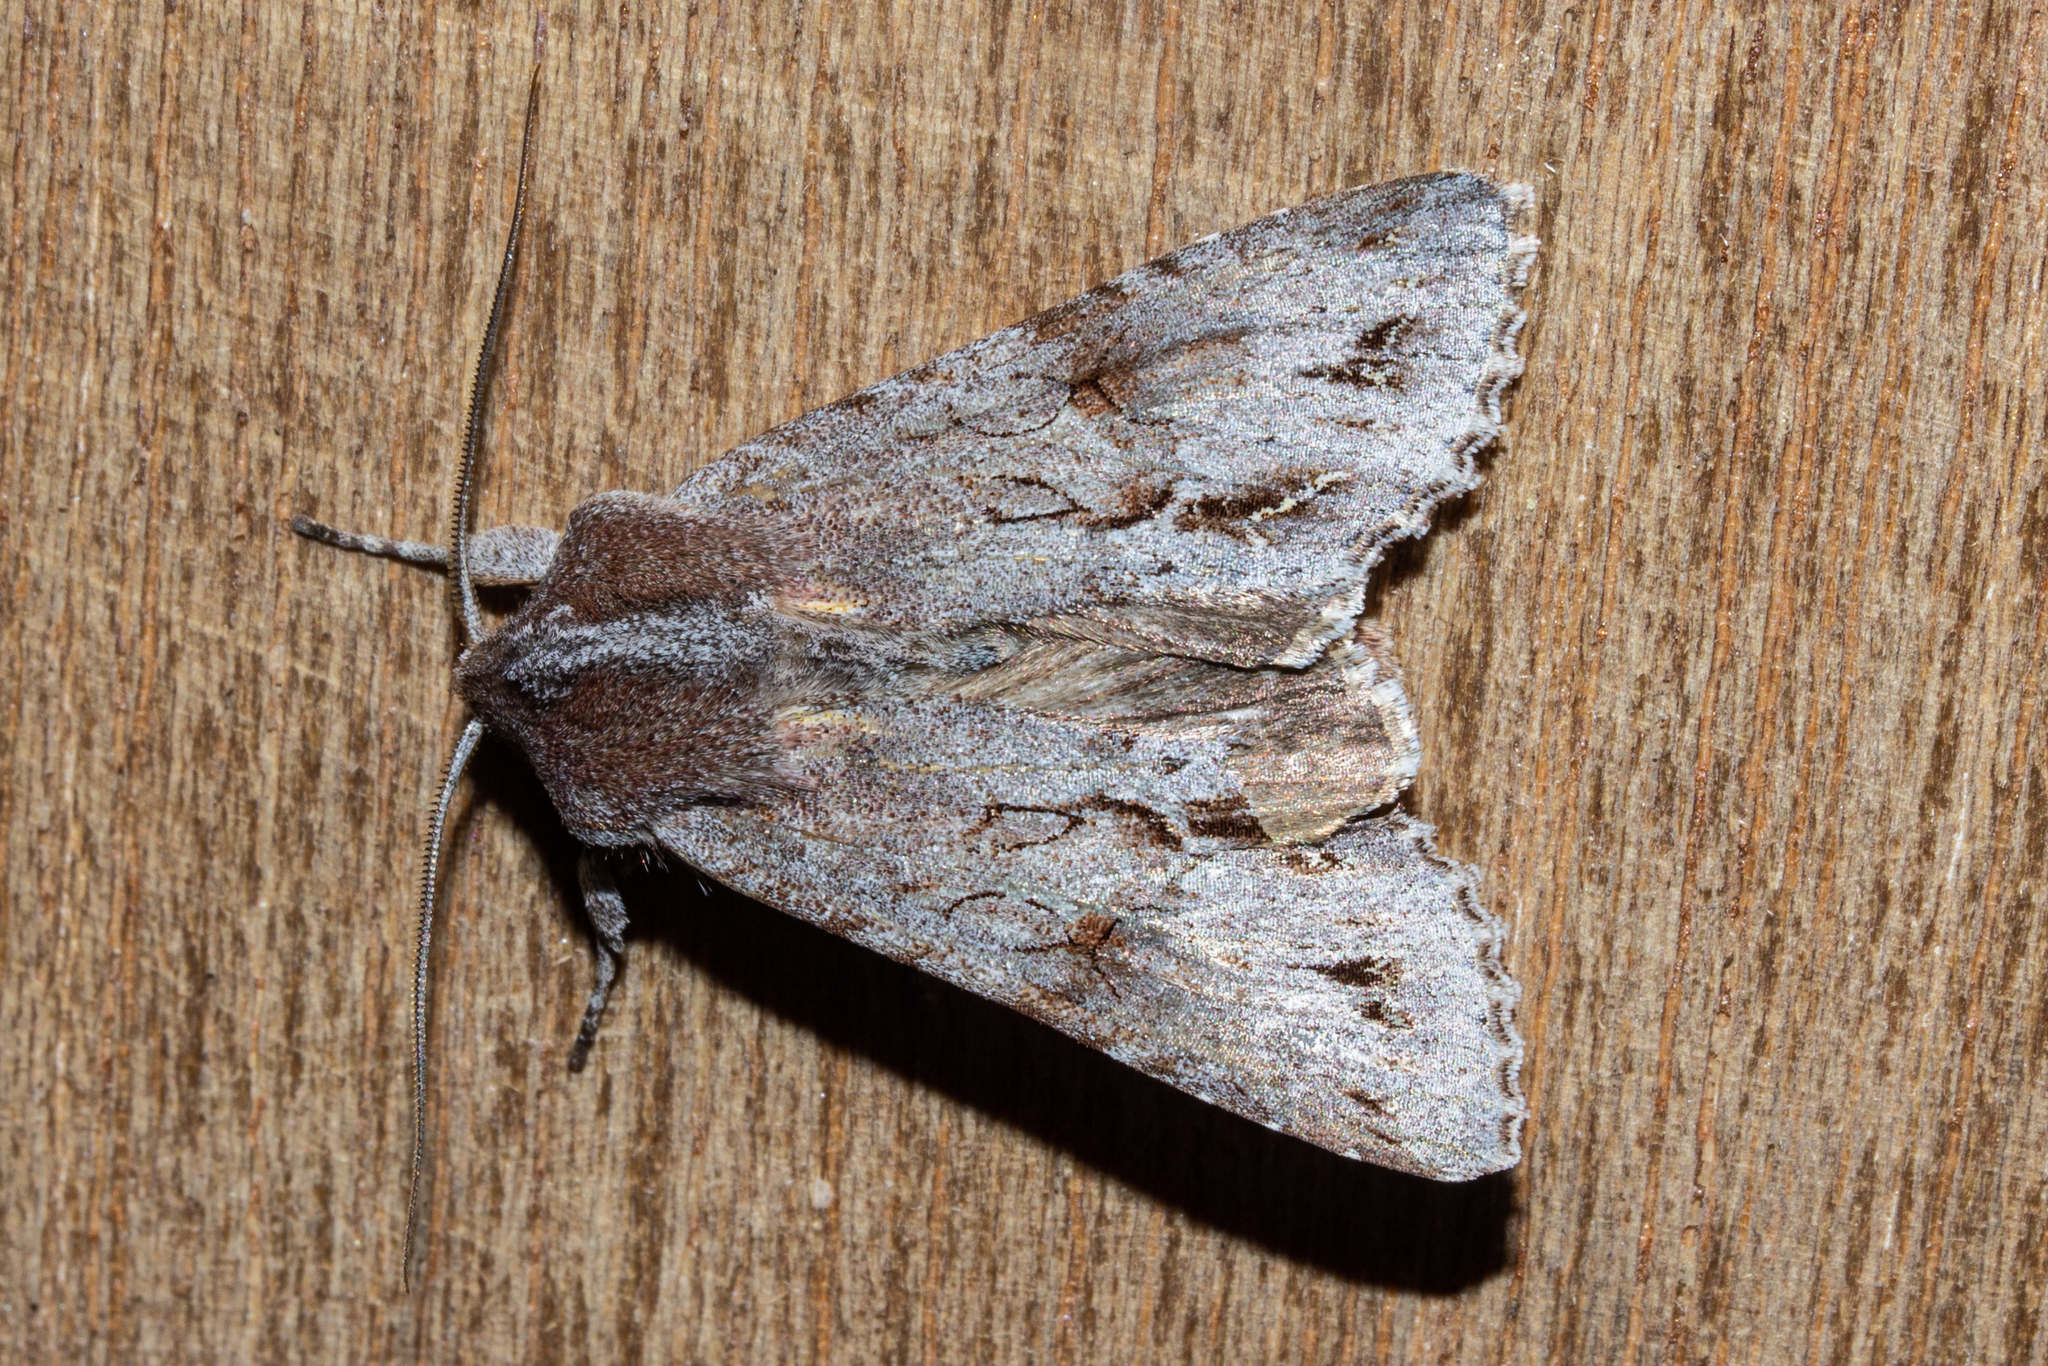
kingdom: Animalia
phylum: Arthropoda
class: Insecta
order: Lepidoptera
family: Noctuidae
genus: Ichneutica
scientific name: Ichneutica
